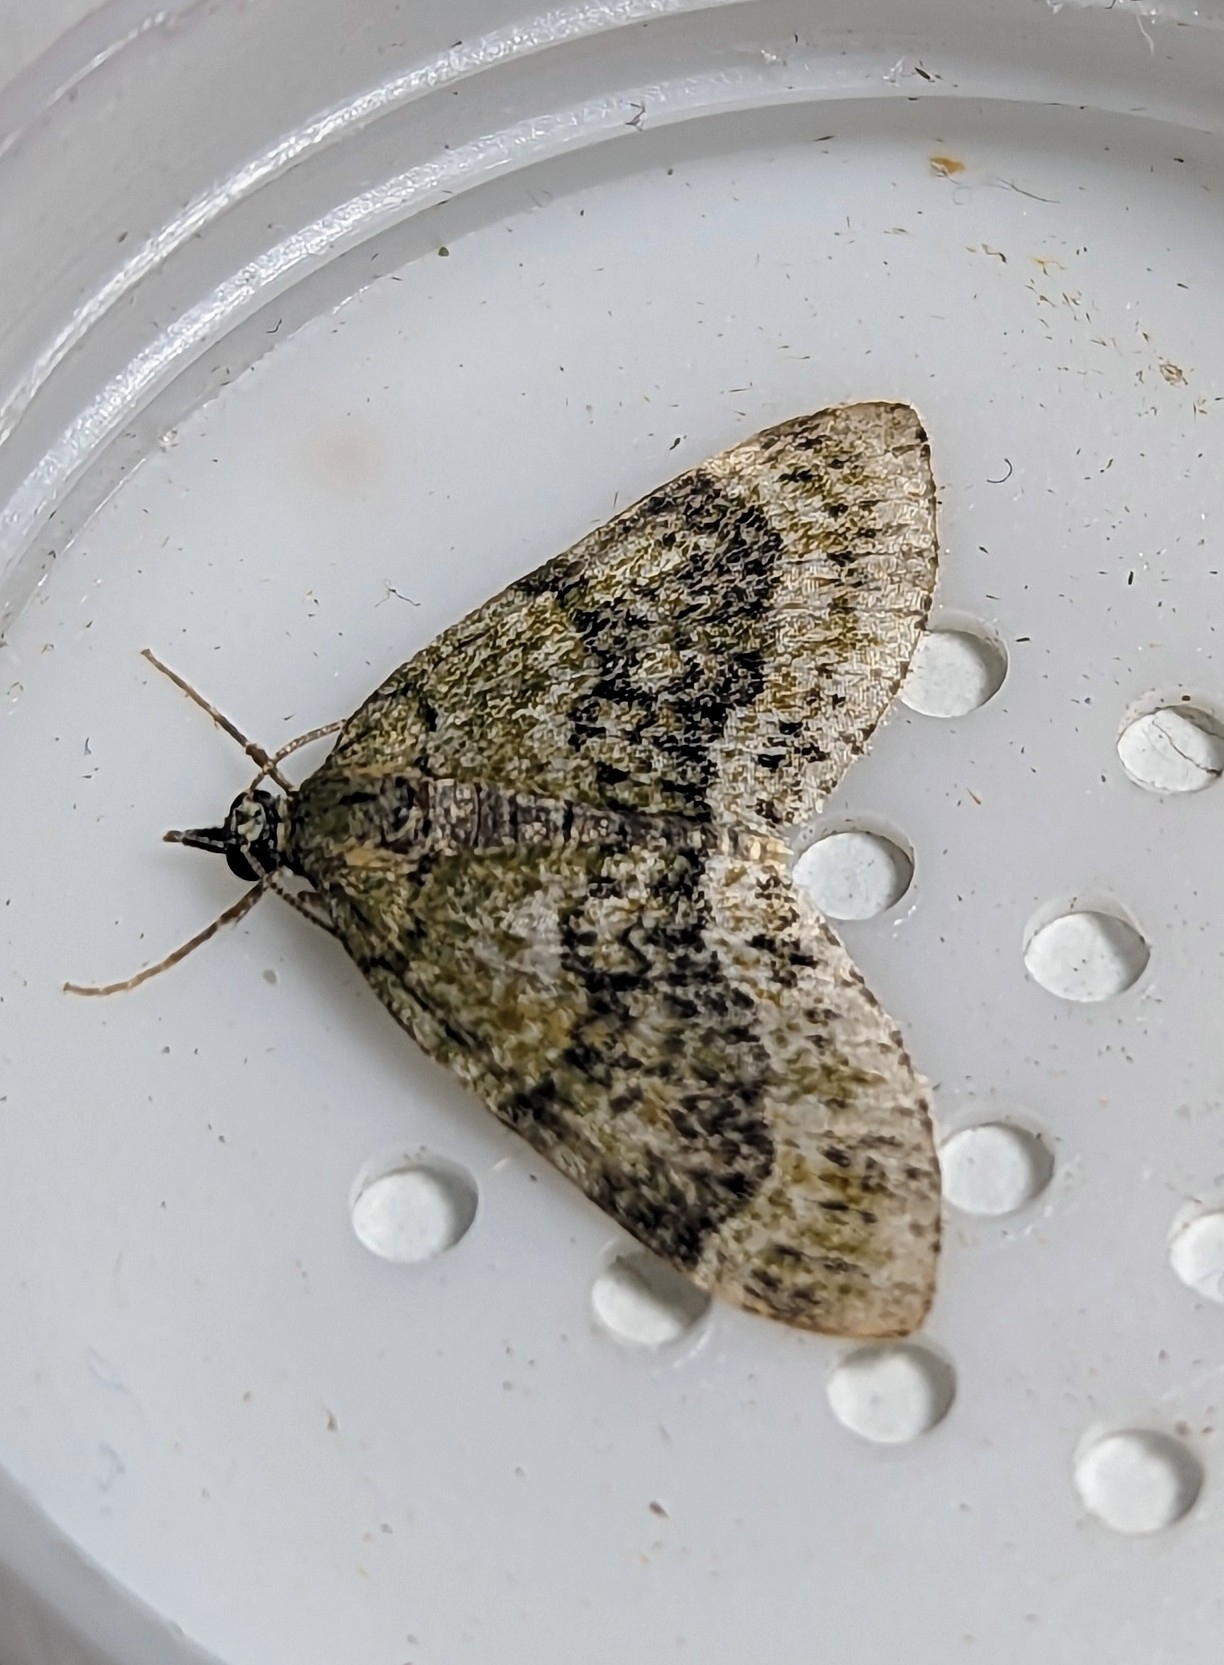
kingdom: Animalia
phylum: Arthropoda
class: Insecta
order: Lepidoptera
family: Geometridae
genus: Acasis
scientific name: Acasis viretata
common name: Yellow-barred brindle
